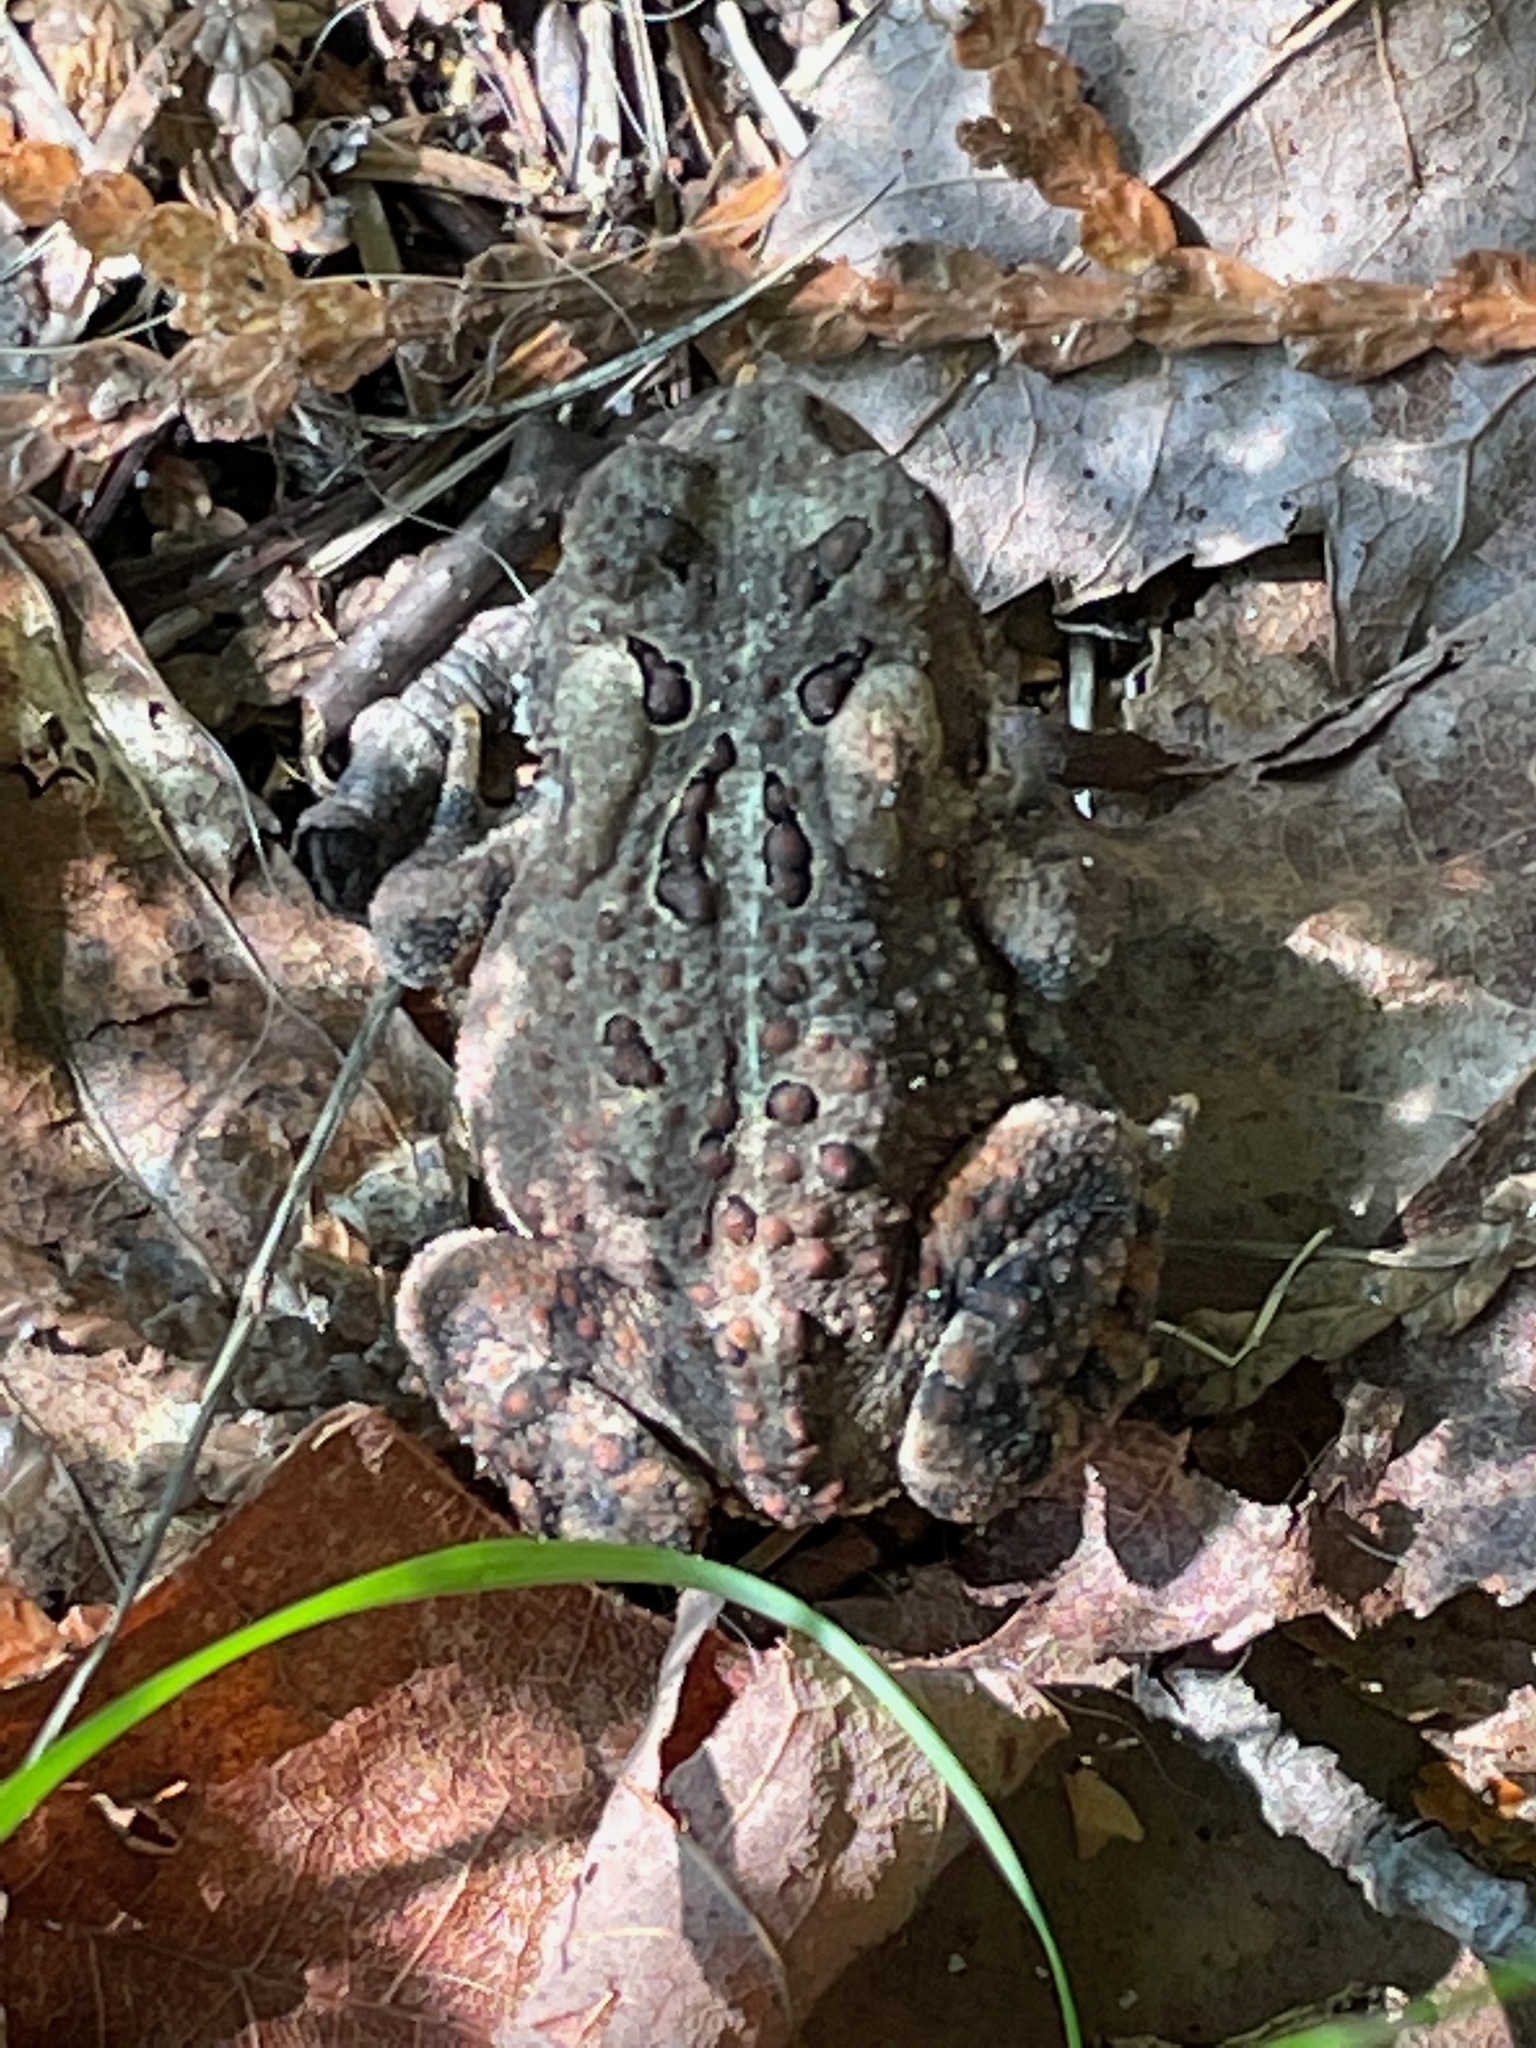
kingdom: Animalia
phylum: Chordata
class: Amphibia
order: Anura
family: Bufonidae
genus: Anaxyrus
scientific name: Anaxyrus americanus
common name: American toad
